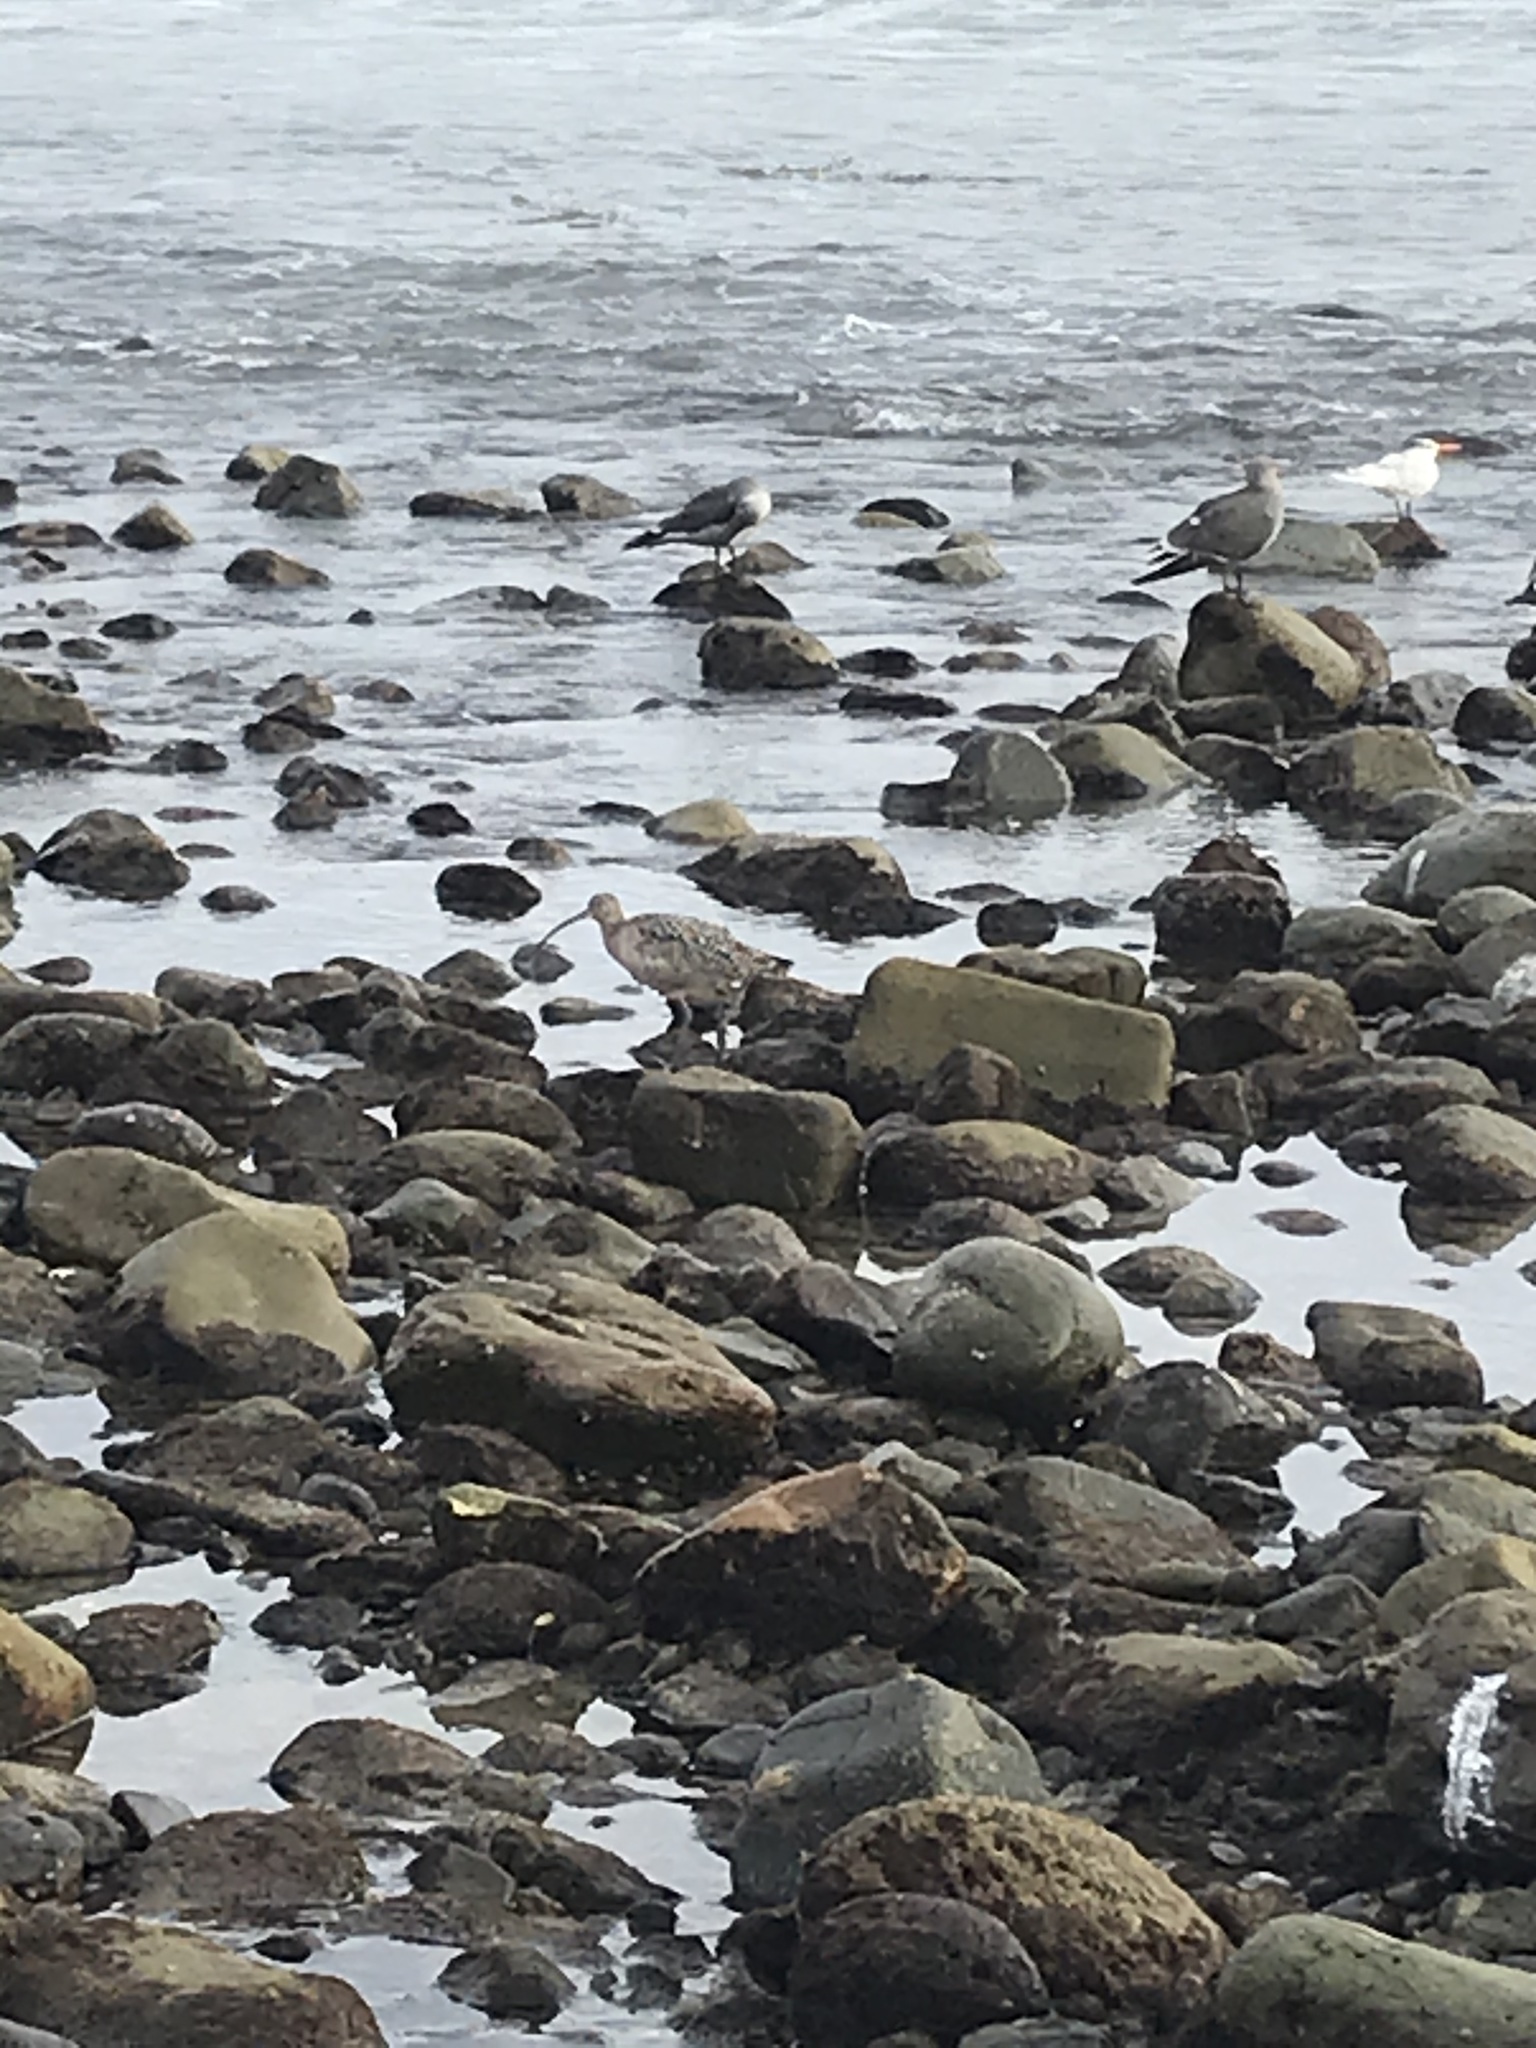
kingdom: Animalia
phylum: Chordata
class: Aves
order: Charadriiformes
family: Scolopacidae
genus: Numenius
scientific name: Numenius americanus
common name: Long-billed curlew
